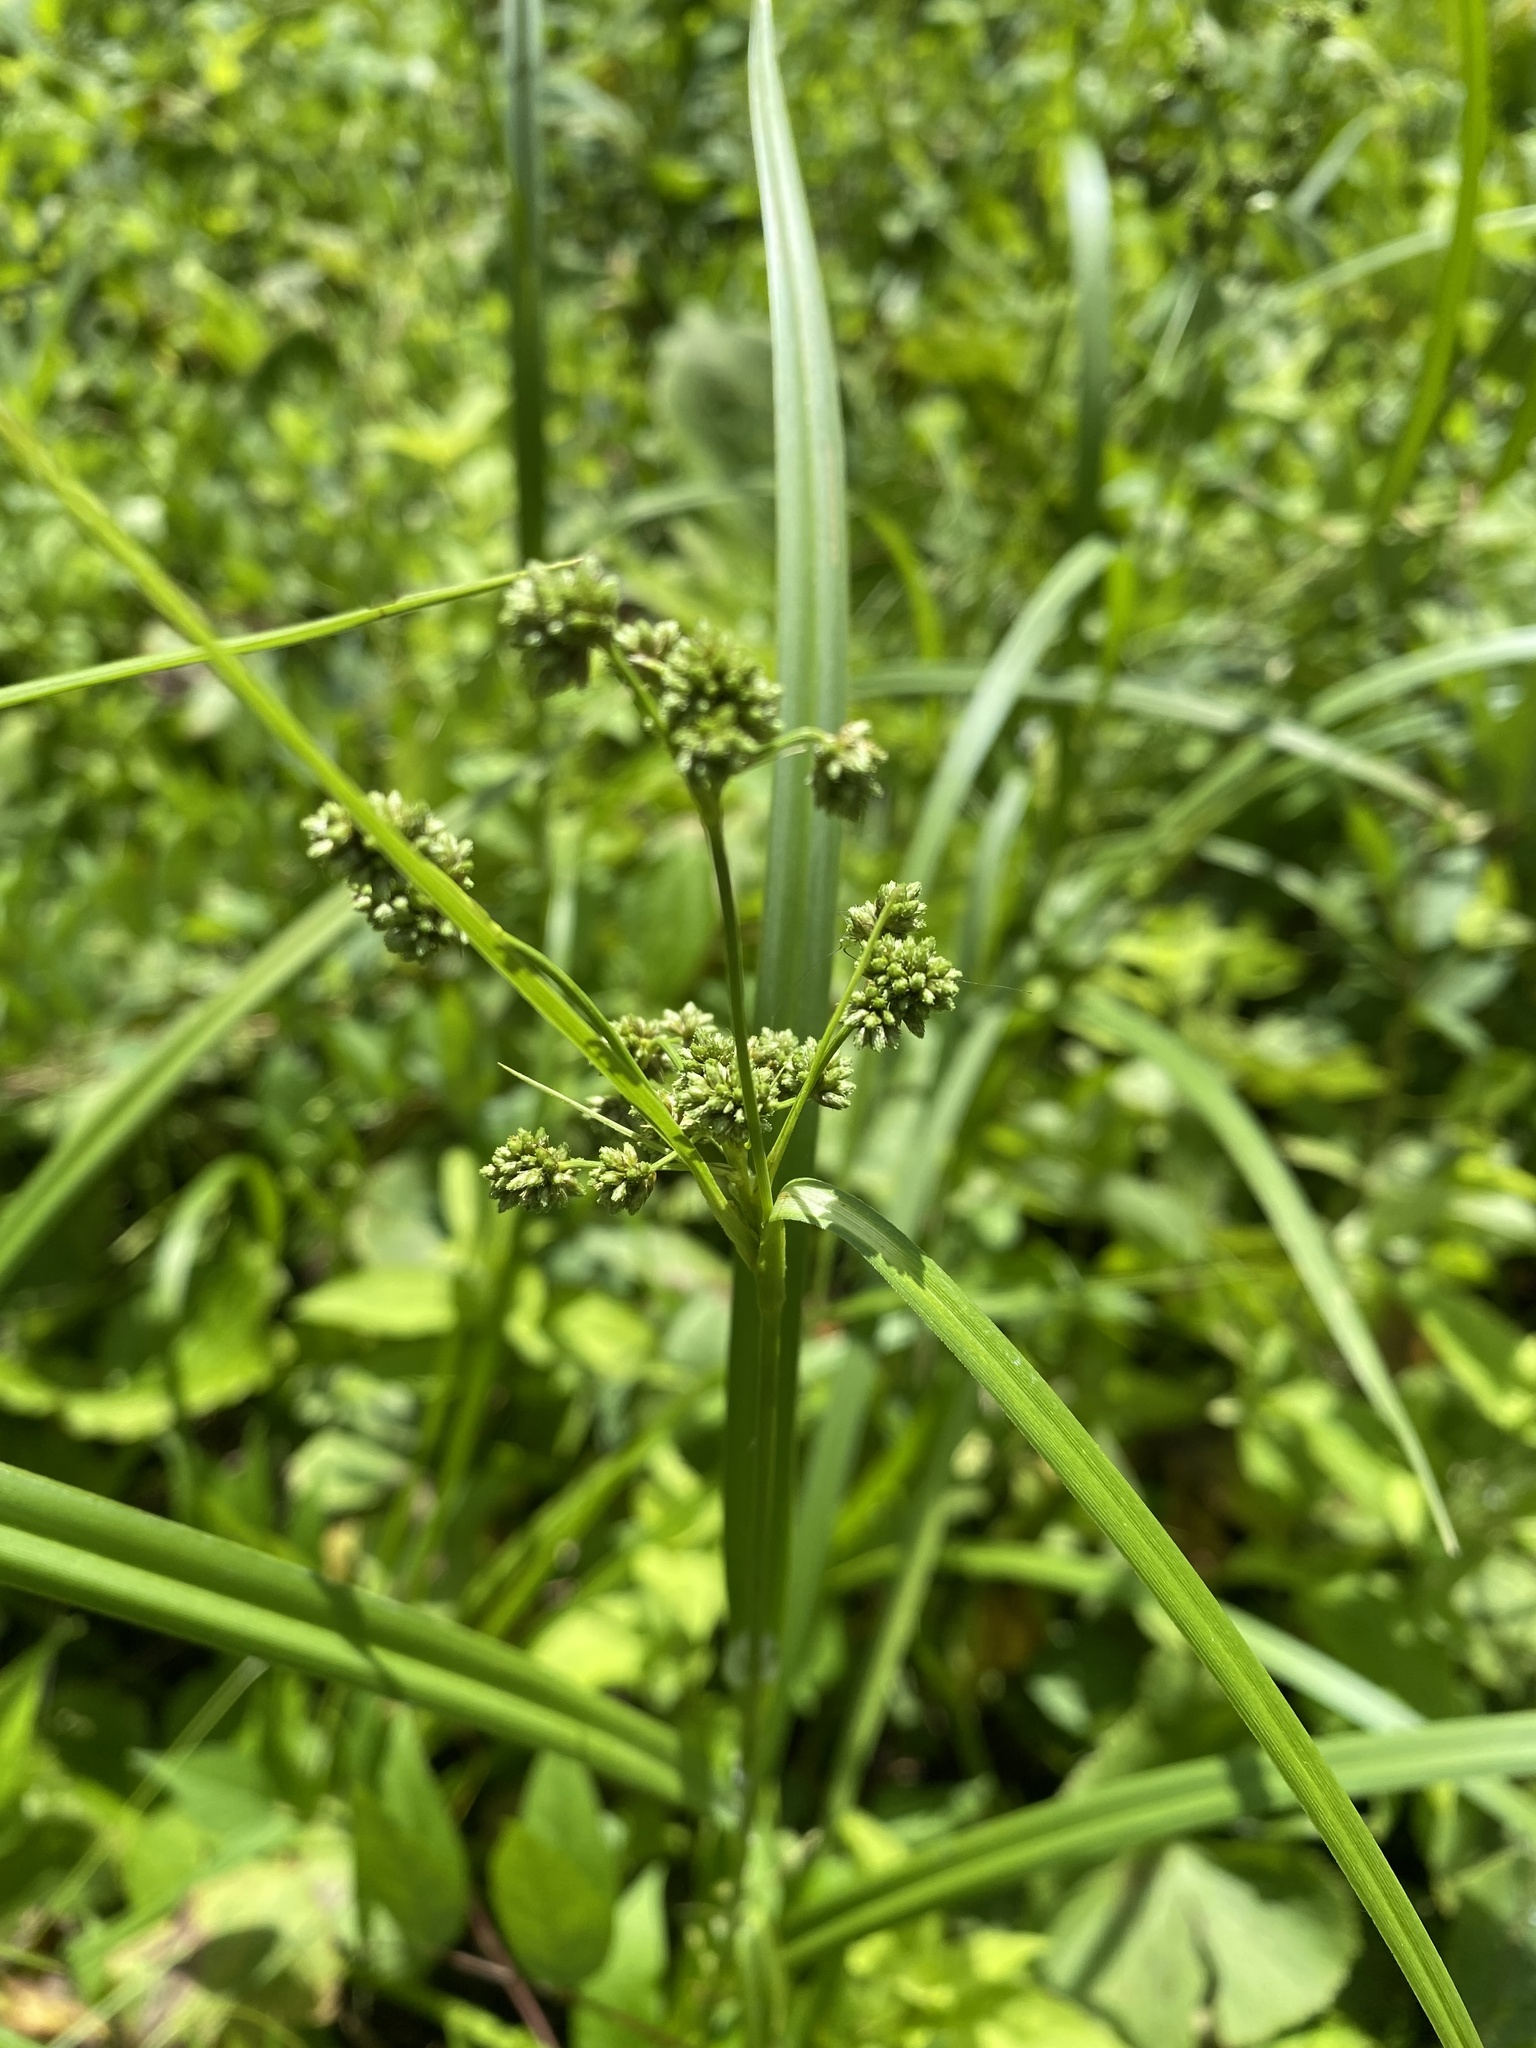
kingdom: Plantae
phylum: Tracheophyta
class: Liliopsida
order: Poales
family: Cyperaceae
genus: Scirpus
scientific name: Scirpus atrovirens
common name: Black bulrush
